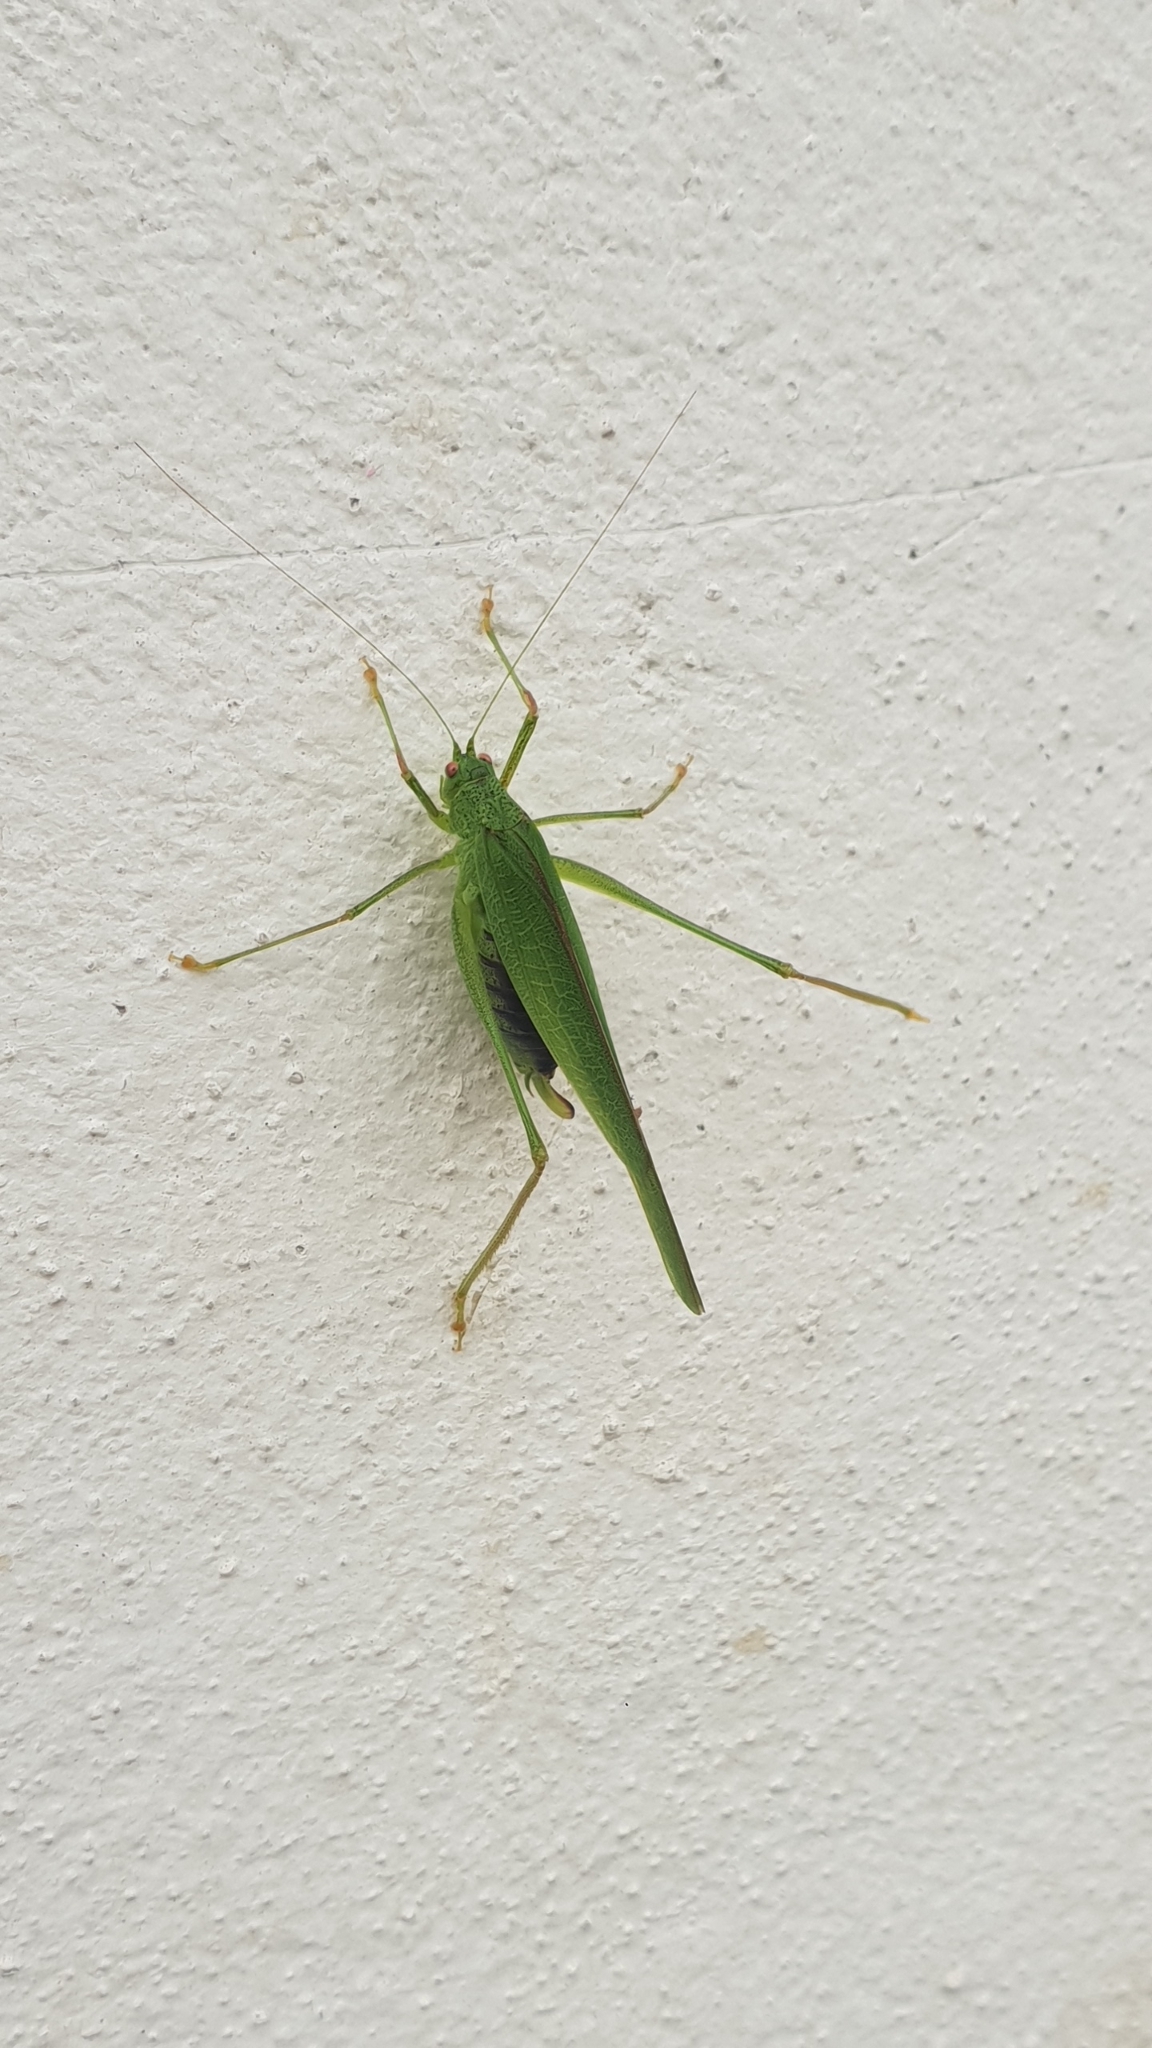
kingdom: Animalia
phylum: Arthropoda
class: Insecta
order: Orthoptera
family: Tettigoniidae
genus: Phaneroptera
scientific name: Phaneroptera nana
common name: Southern sickle bush-cricket
